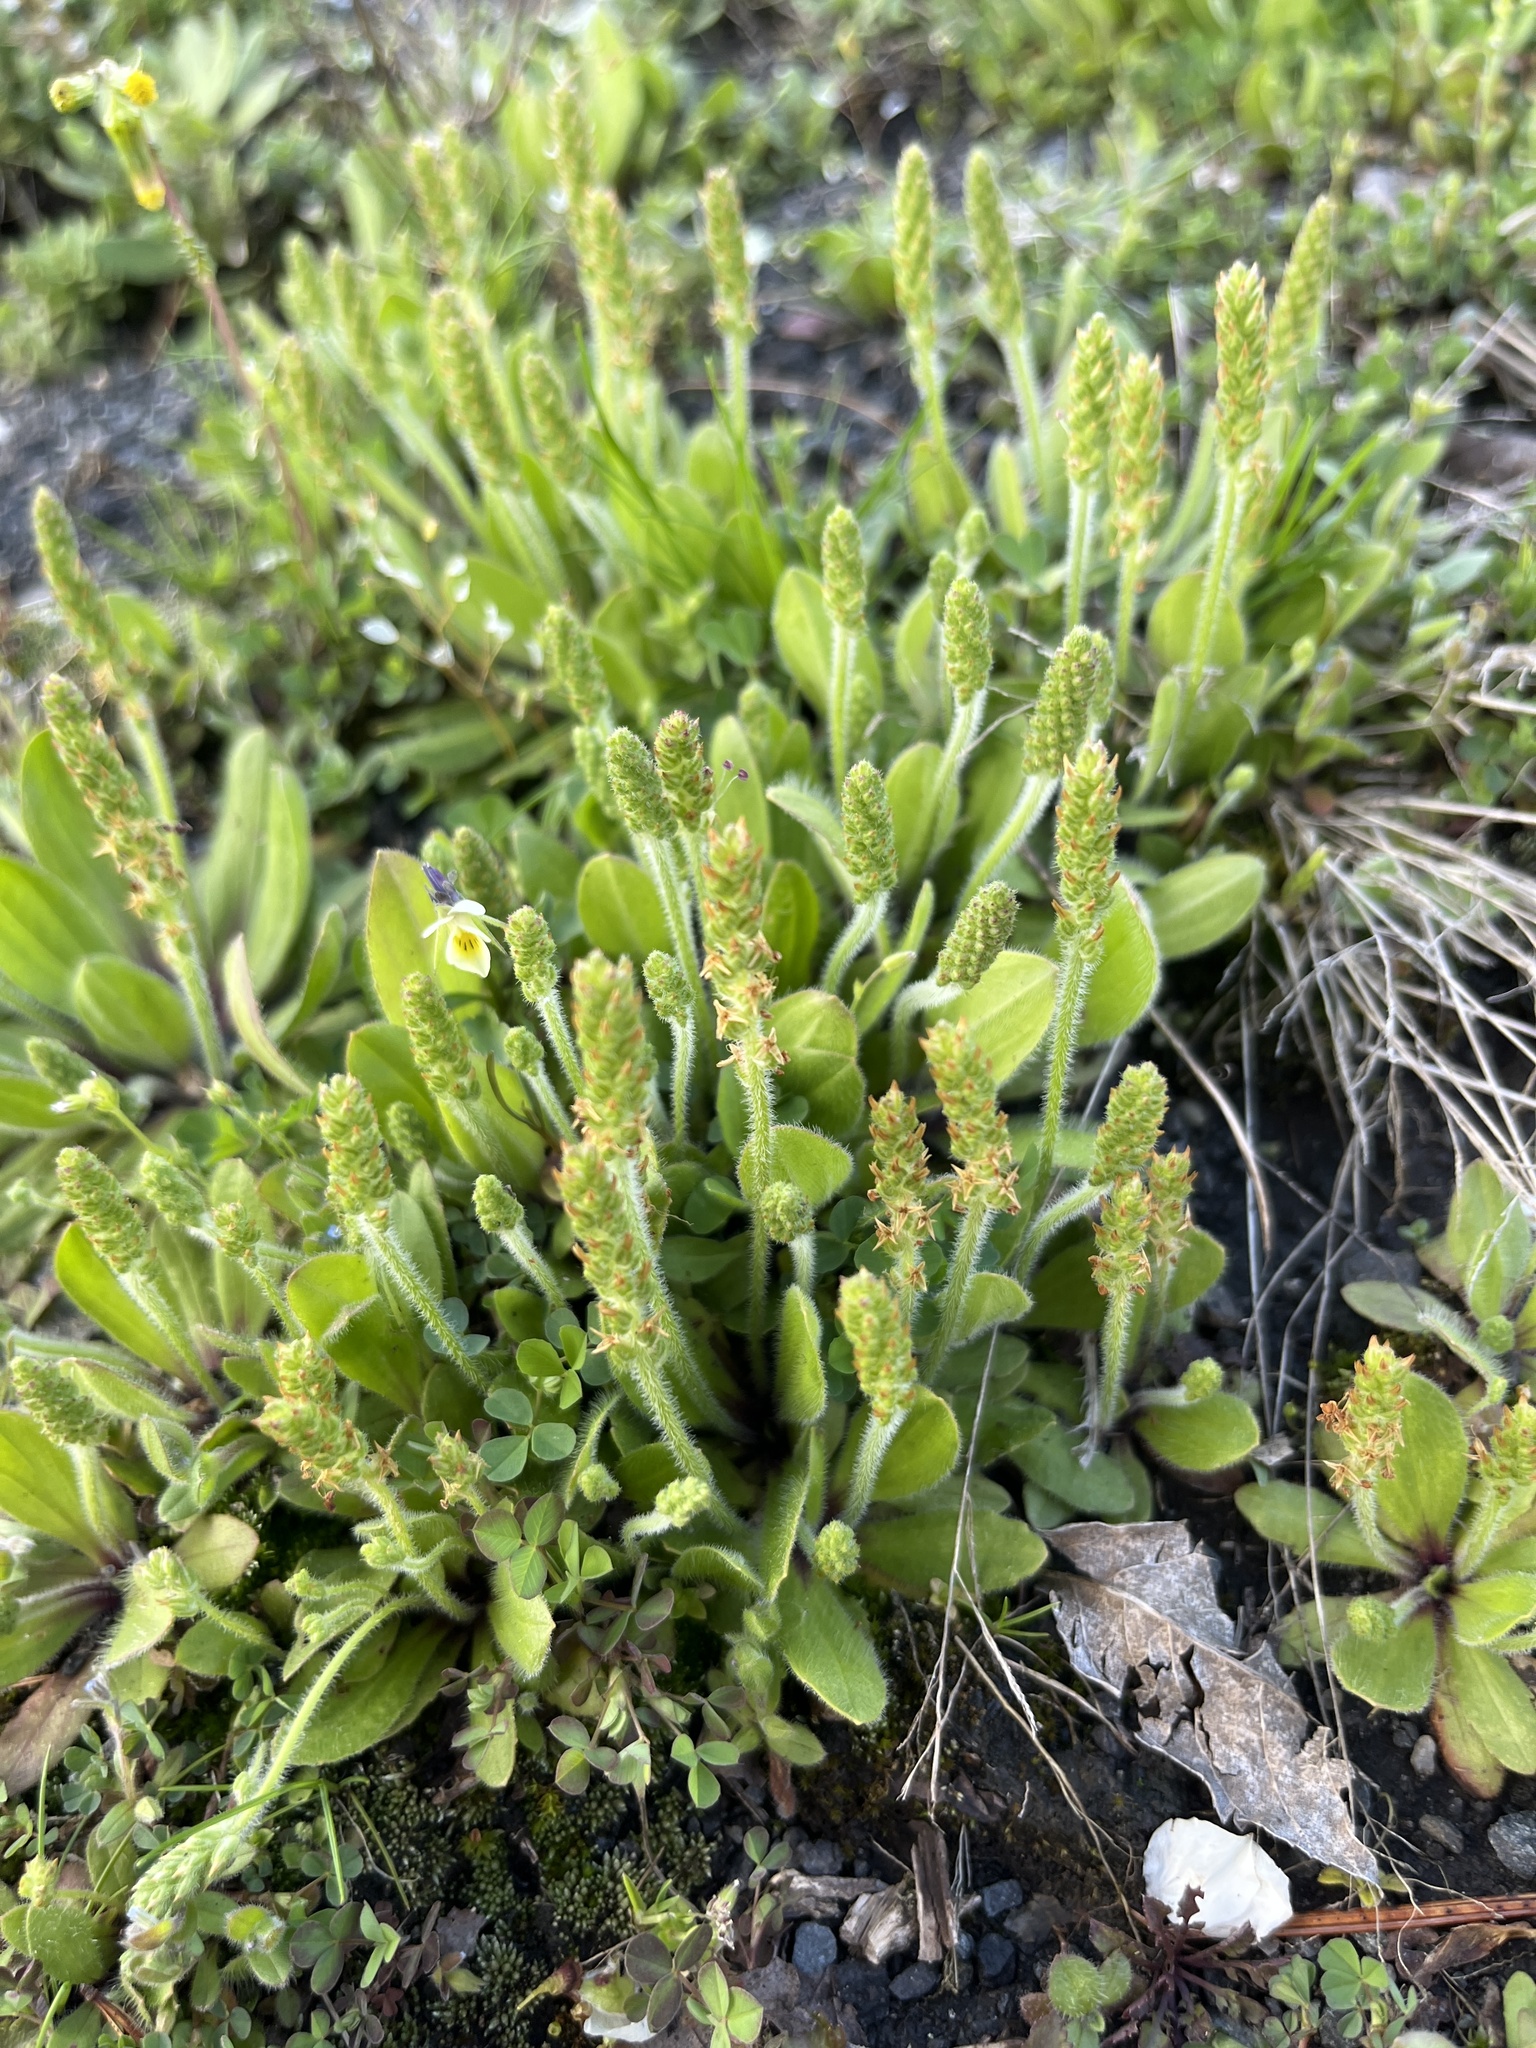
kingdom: Plantae
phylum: Tracheophyta
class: Magnoliopsida
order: Lamiales
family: Plantaginaceae
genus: Plantago
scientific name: Plantago virginica
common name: Hoary plantain
